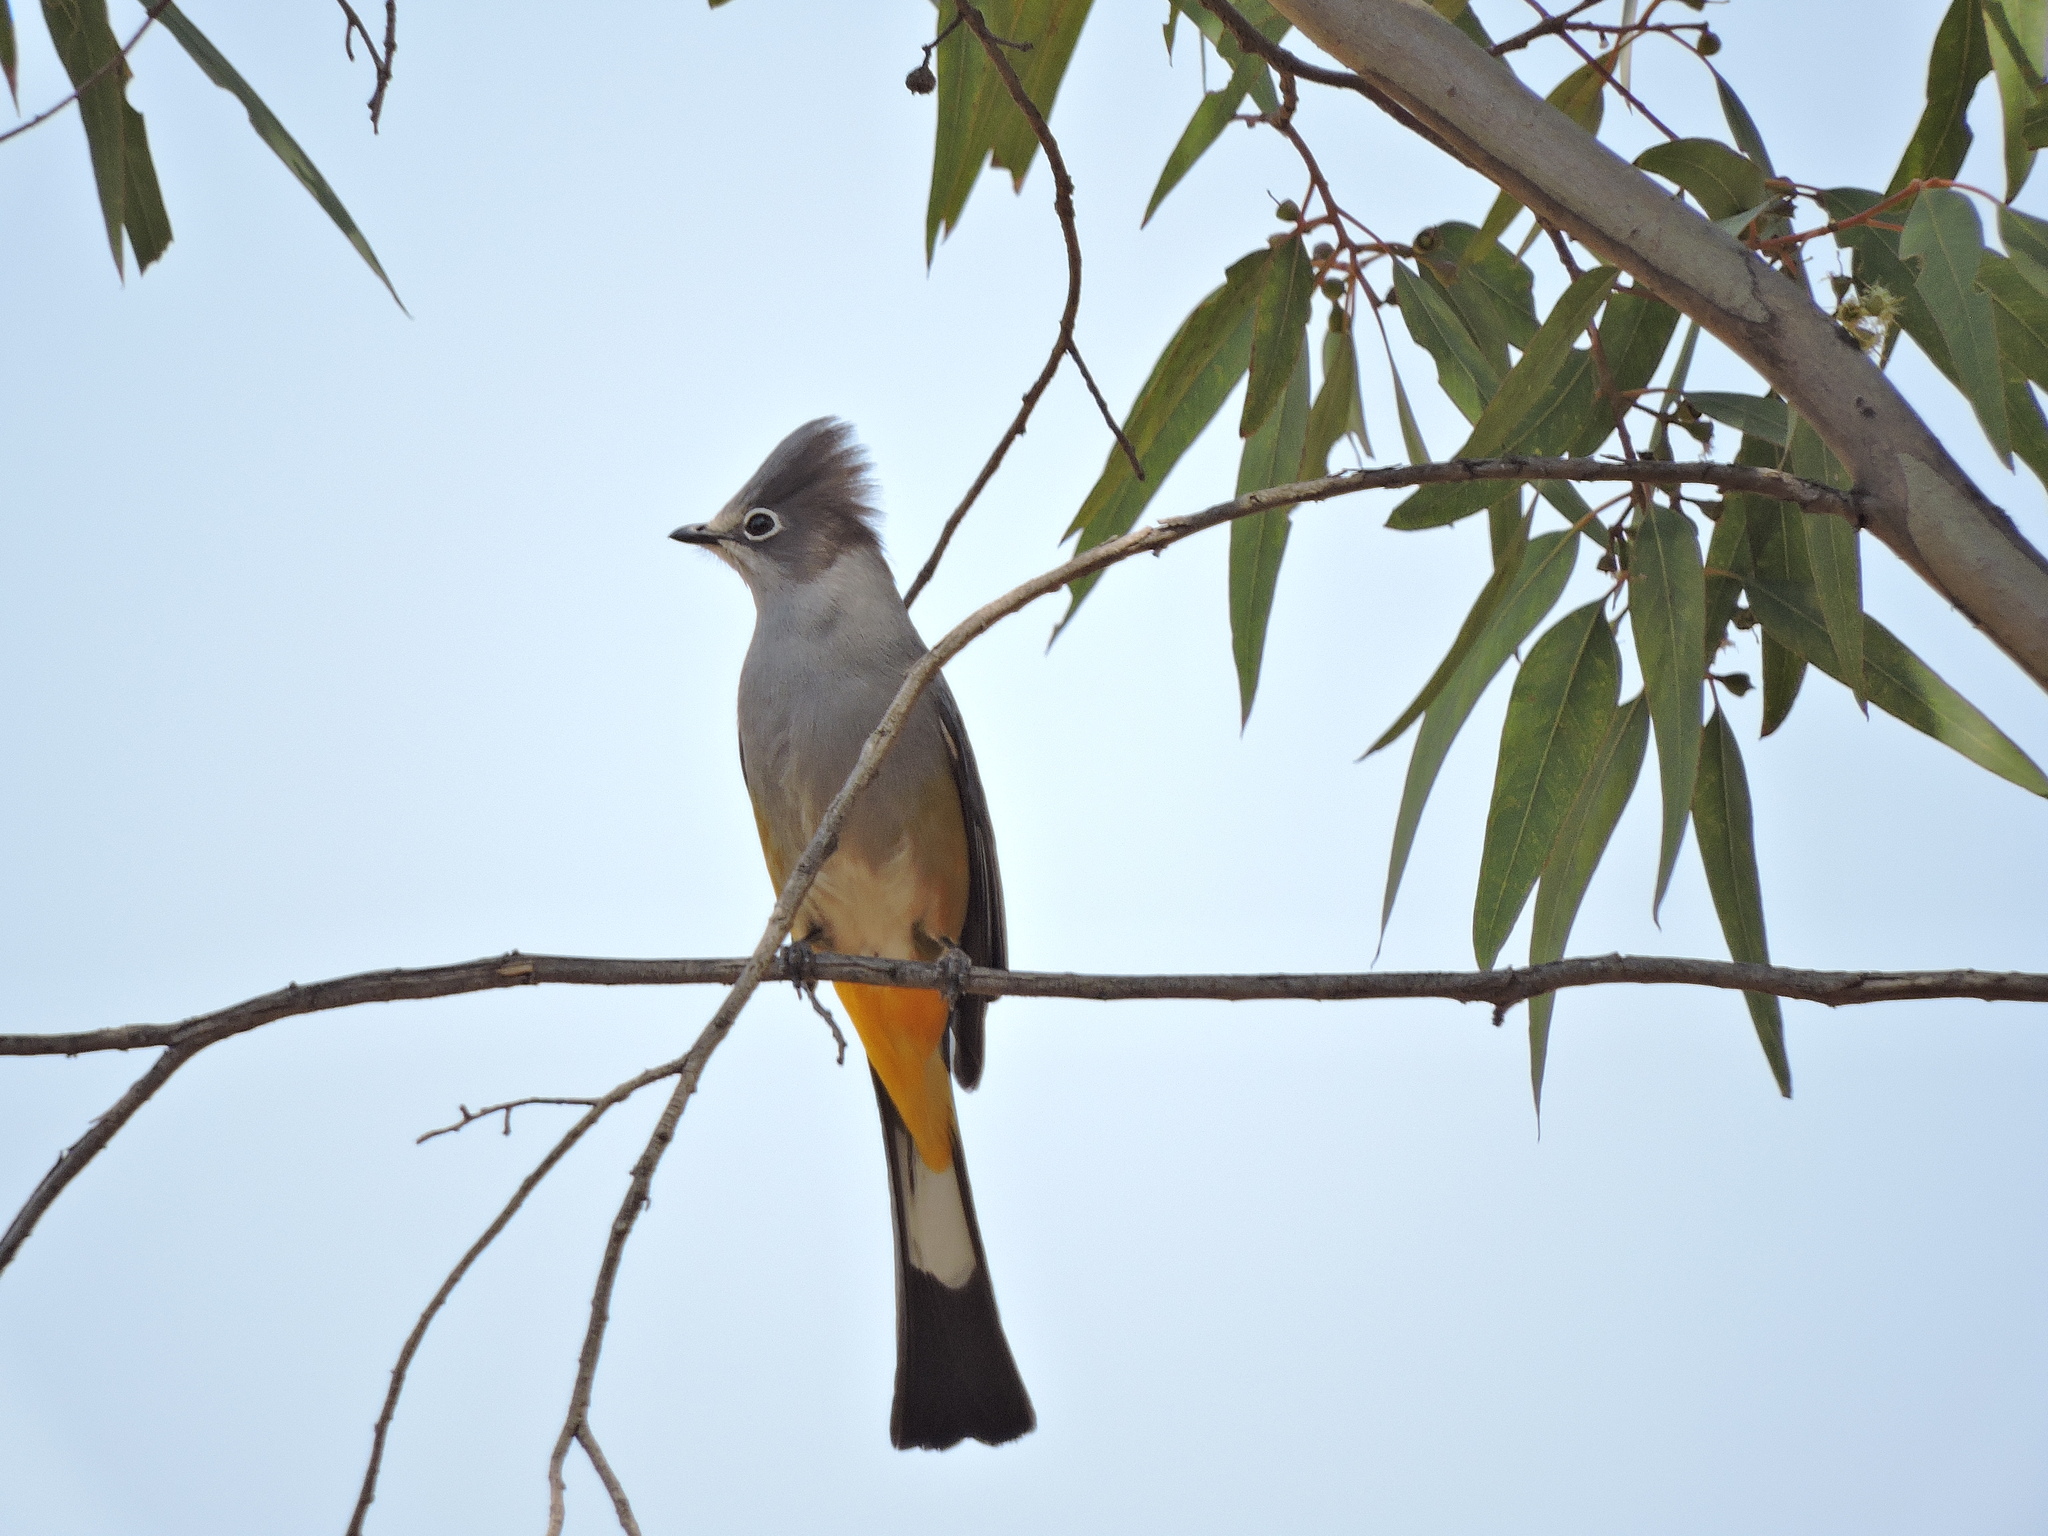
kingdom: Animalia
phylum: Chordata
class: Aves
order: Passeriformes
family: Ptilogonatidae
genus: Ptilogonys
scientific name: Ptilogonys cinereus
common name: Gray silky-flycatcher
